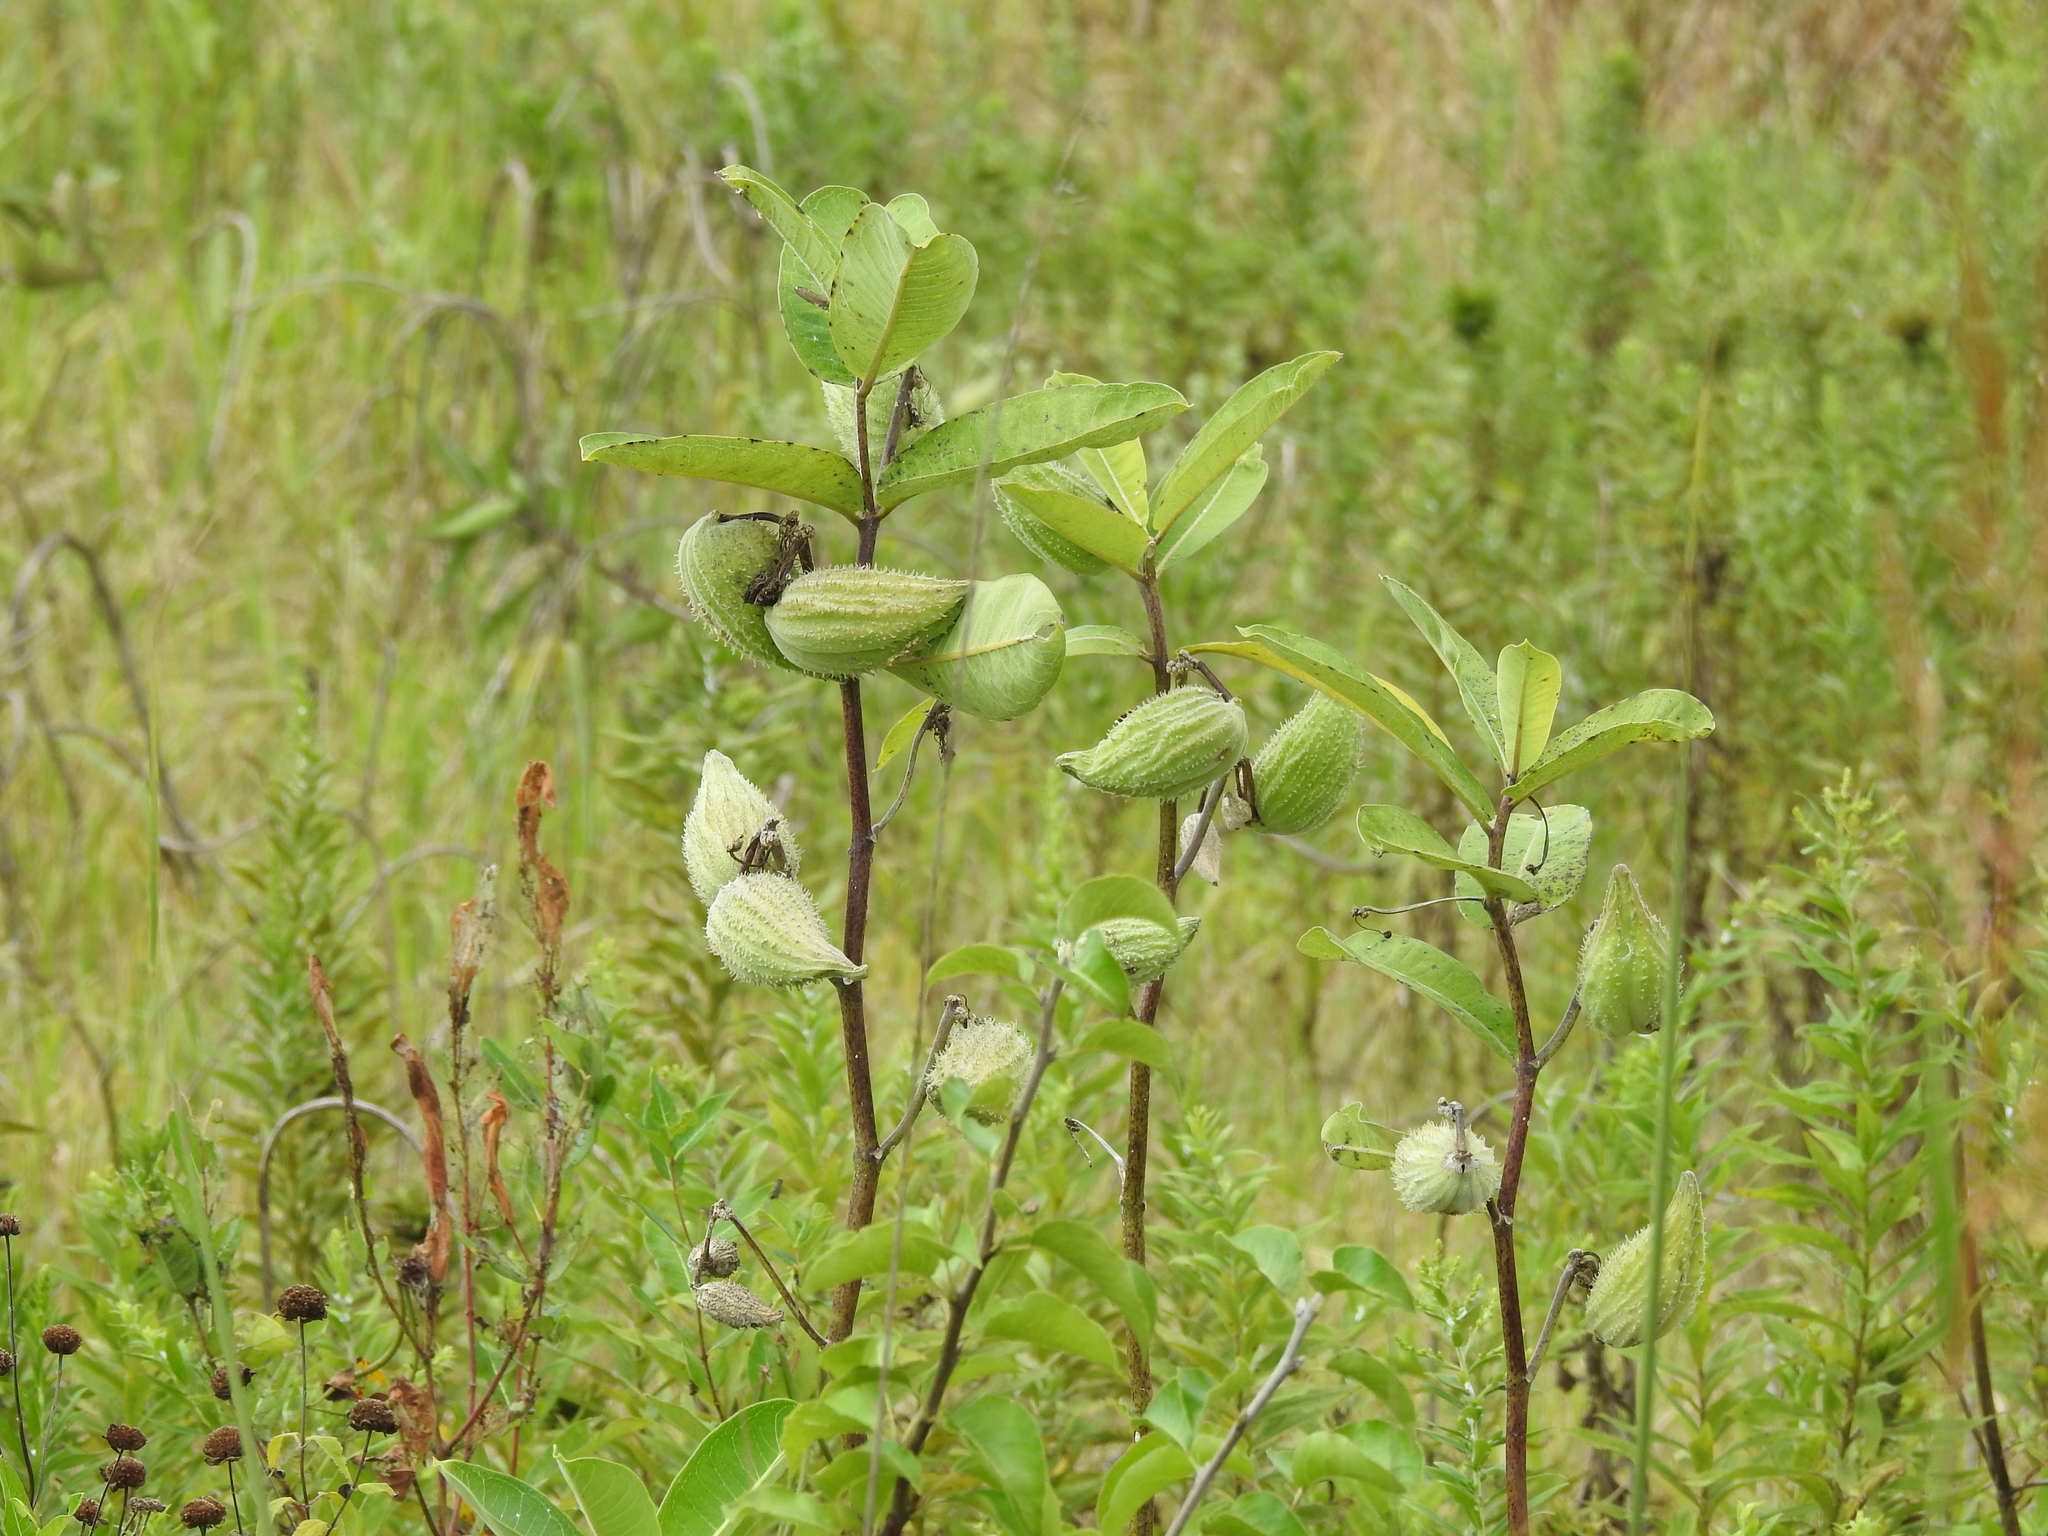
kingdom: Plantae
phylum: Tracheophyta
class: Magnoliopsida
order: Gentianales
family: Apocynaceae
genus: Asclepias
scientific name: Asclepias syriaca
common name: Common milkweed
